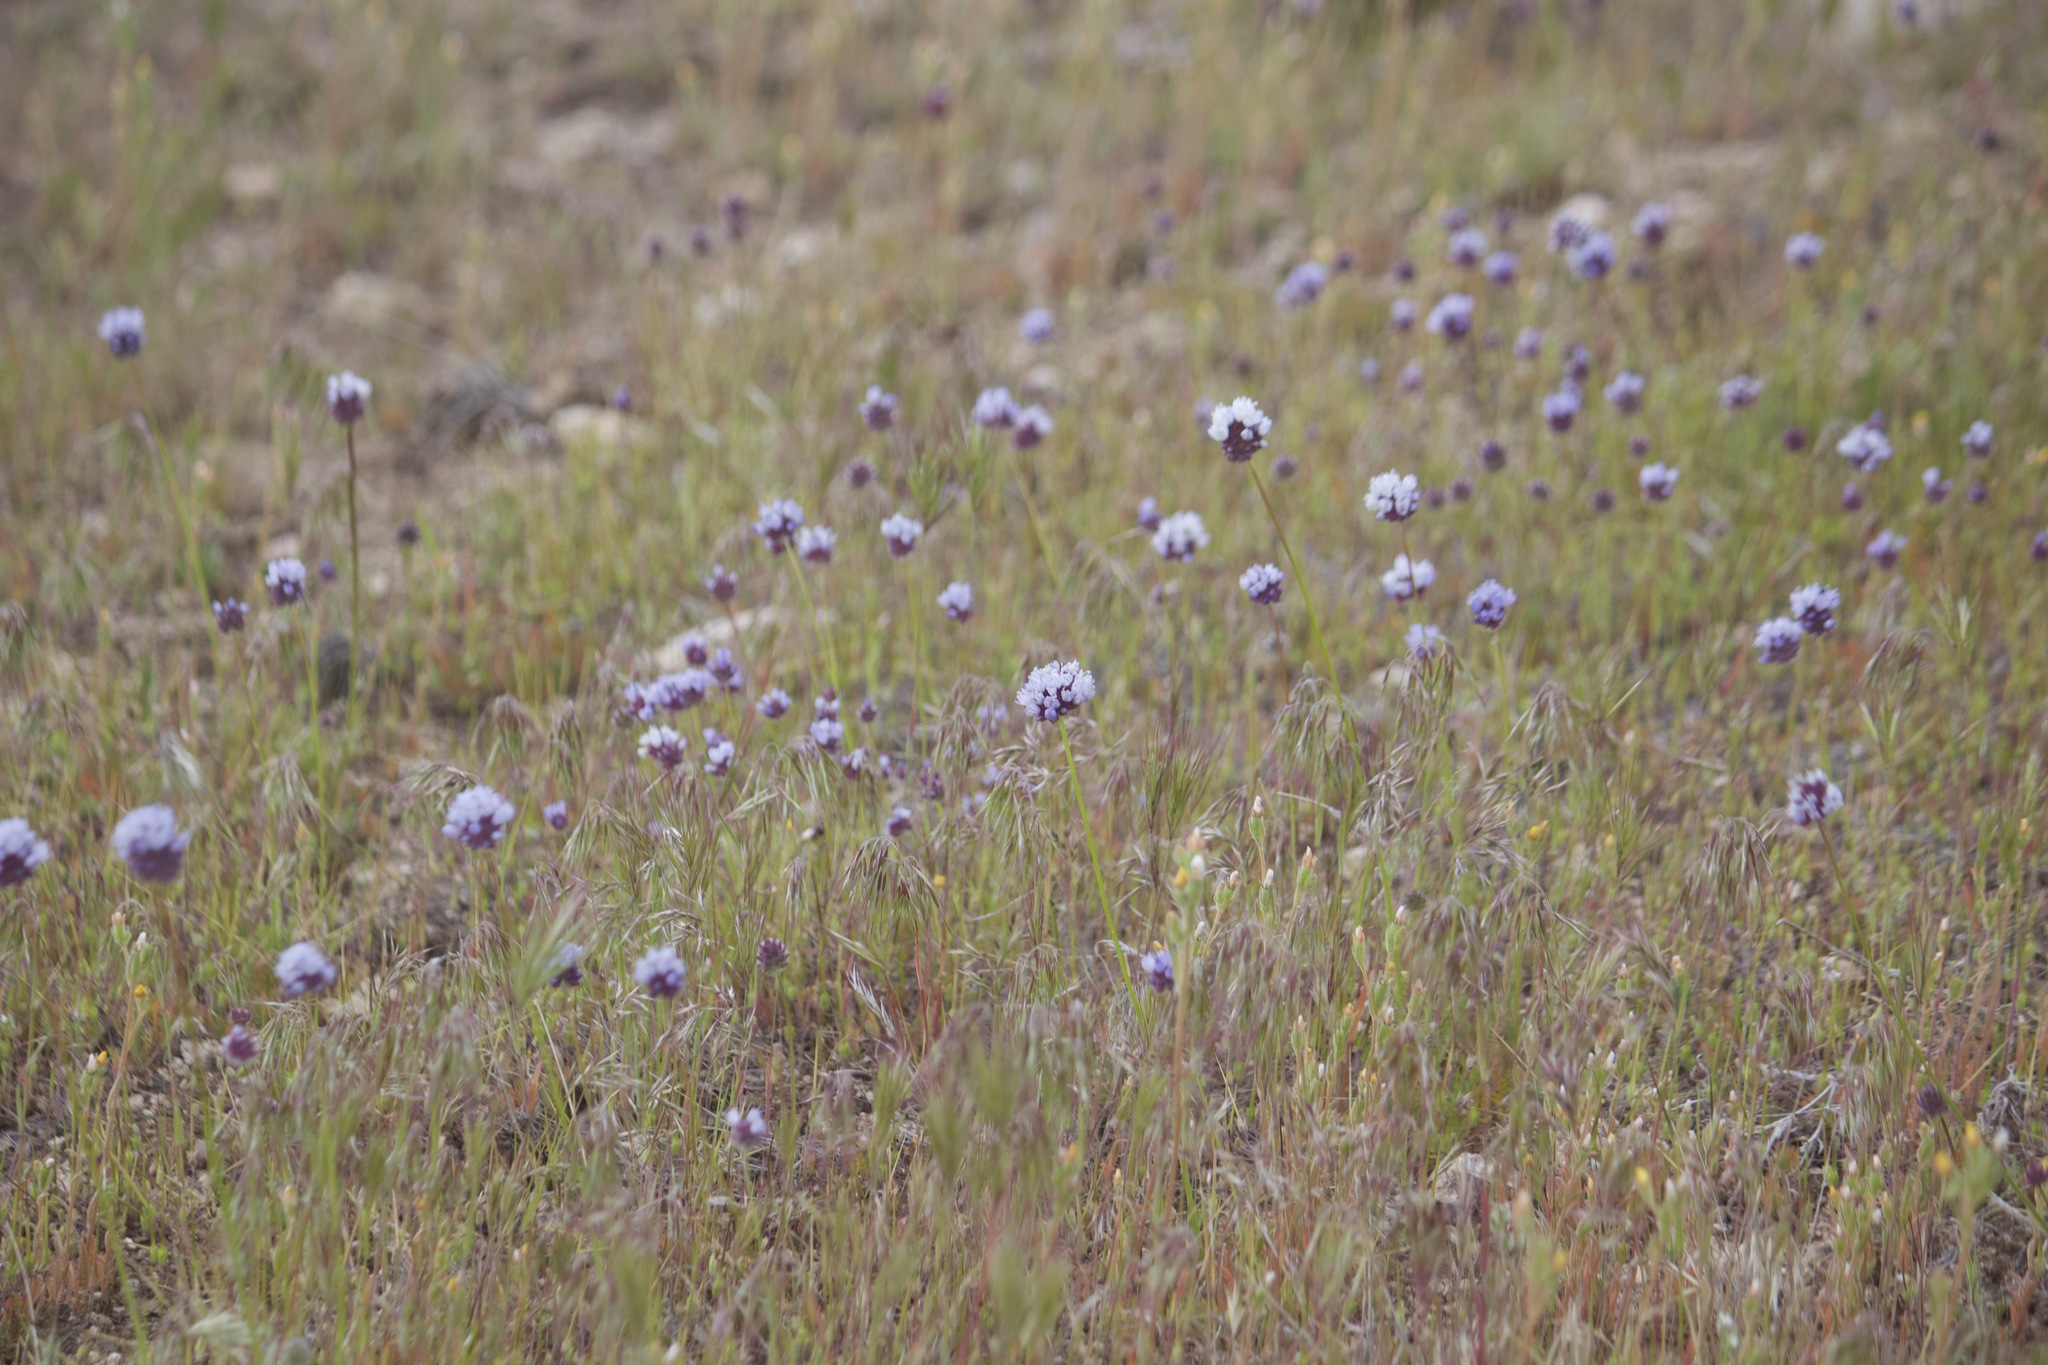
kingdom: Plantae
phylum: Tracheophyta
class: Magnoliopsida
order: Ericales
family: Polemoniaceae
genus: Gilia
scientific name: Gilia capitata
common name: Bluehead gilia
